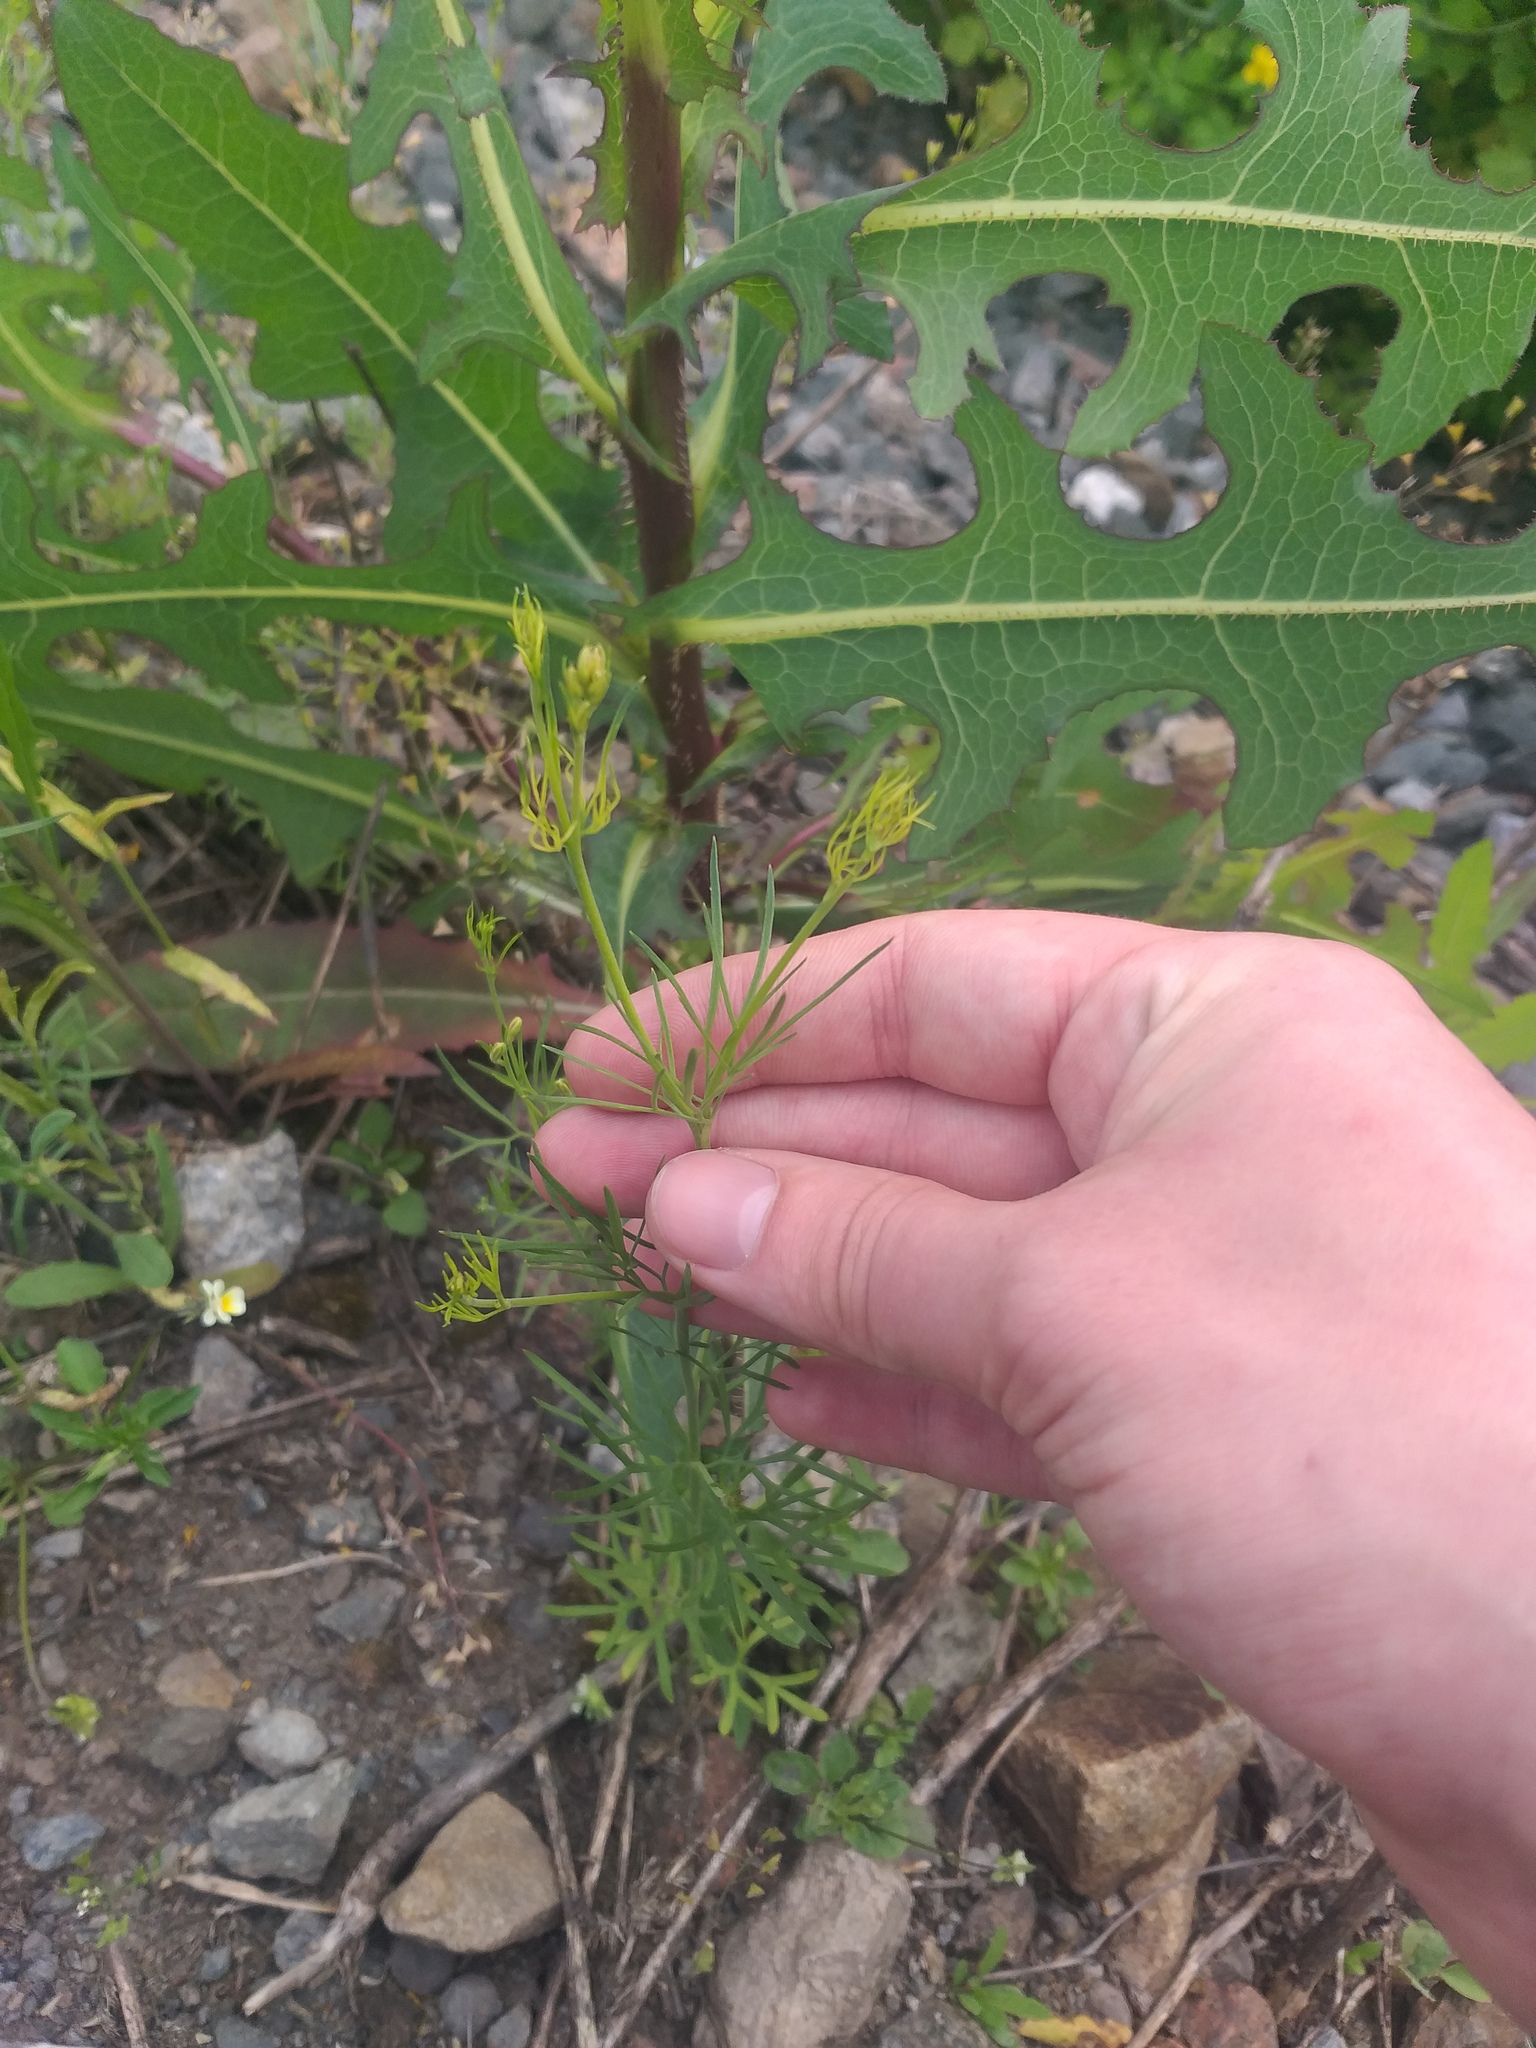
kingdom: Plantae
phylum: Tracheophyta
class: Magnoliopsida
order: Ranunculales
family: Ranunculaceae
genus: Delphinium
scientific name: Delphinium consolida
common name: Branching larkspur
